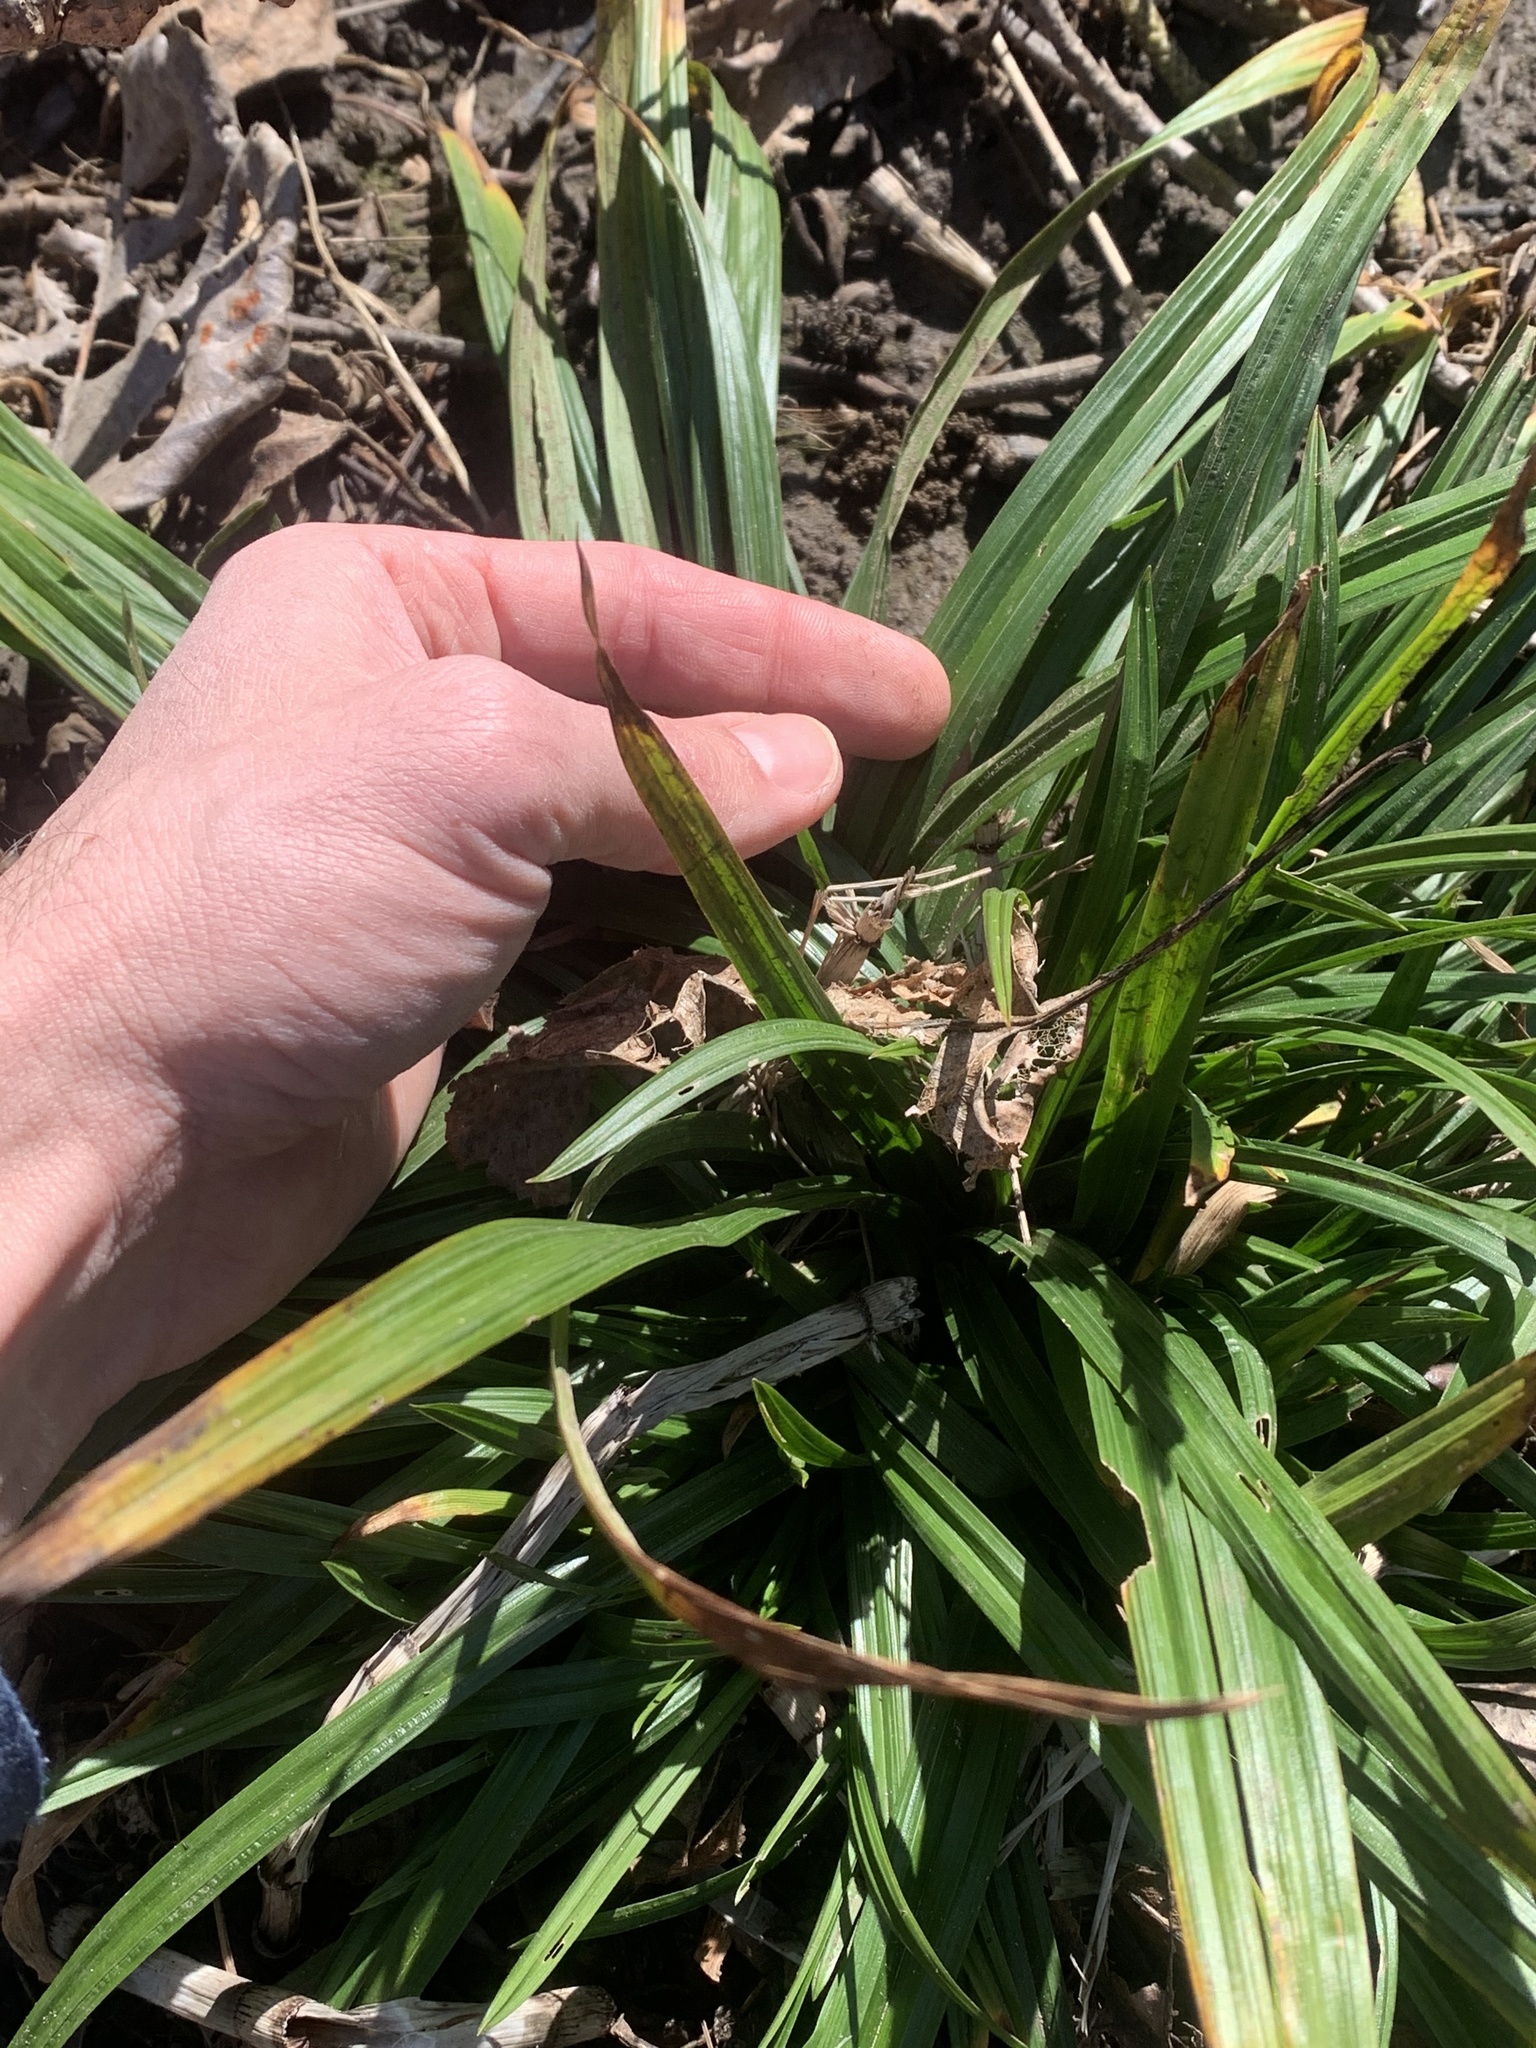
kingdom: Plantae
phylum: Tracheophyta
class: Liliopsida
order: Poales
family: Cyperaceae
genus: Carex
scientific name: Carex hendersonii
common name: Henderson's sedge
